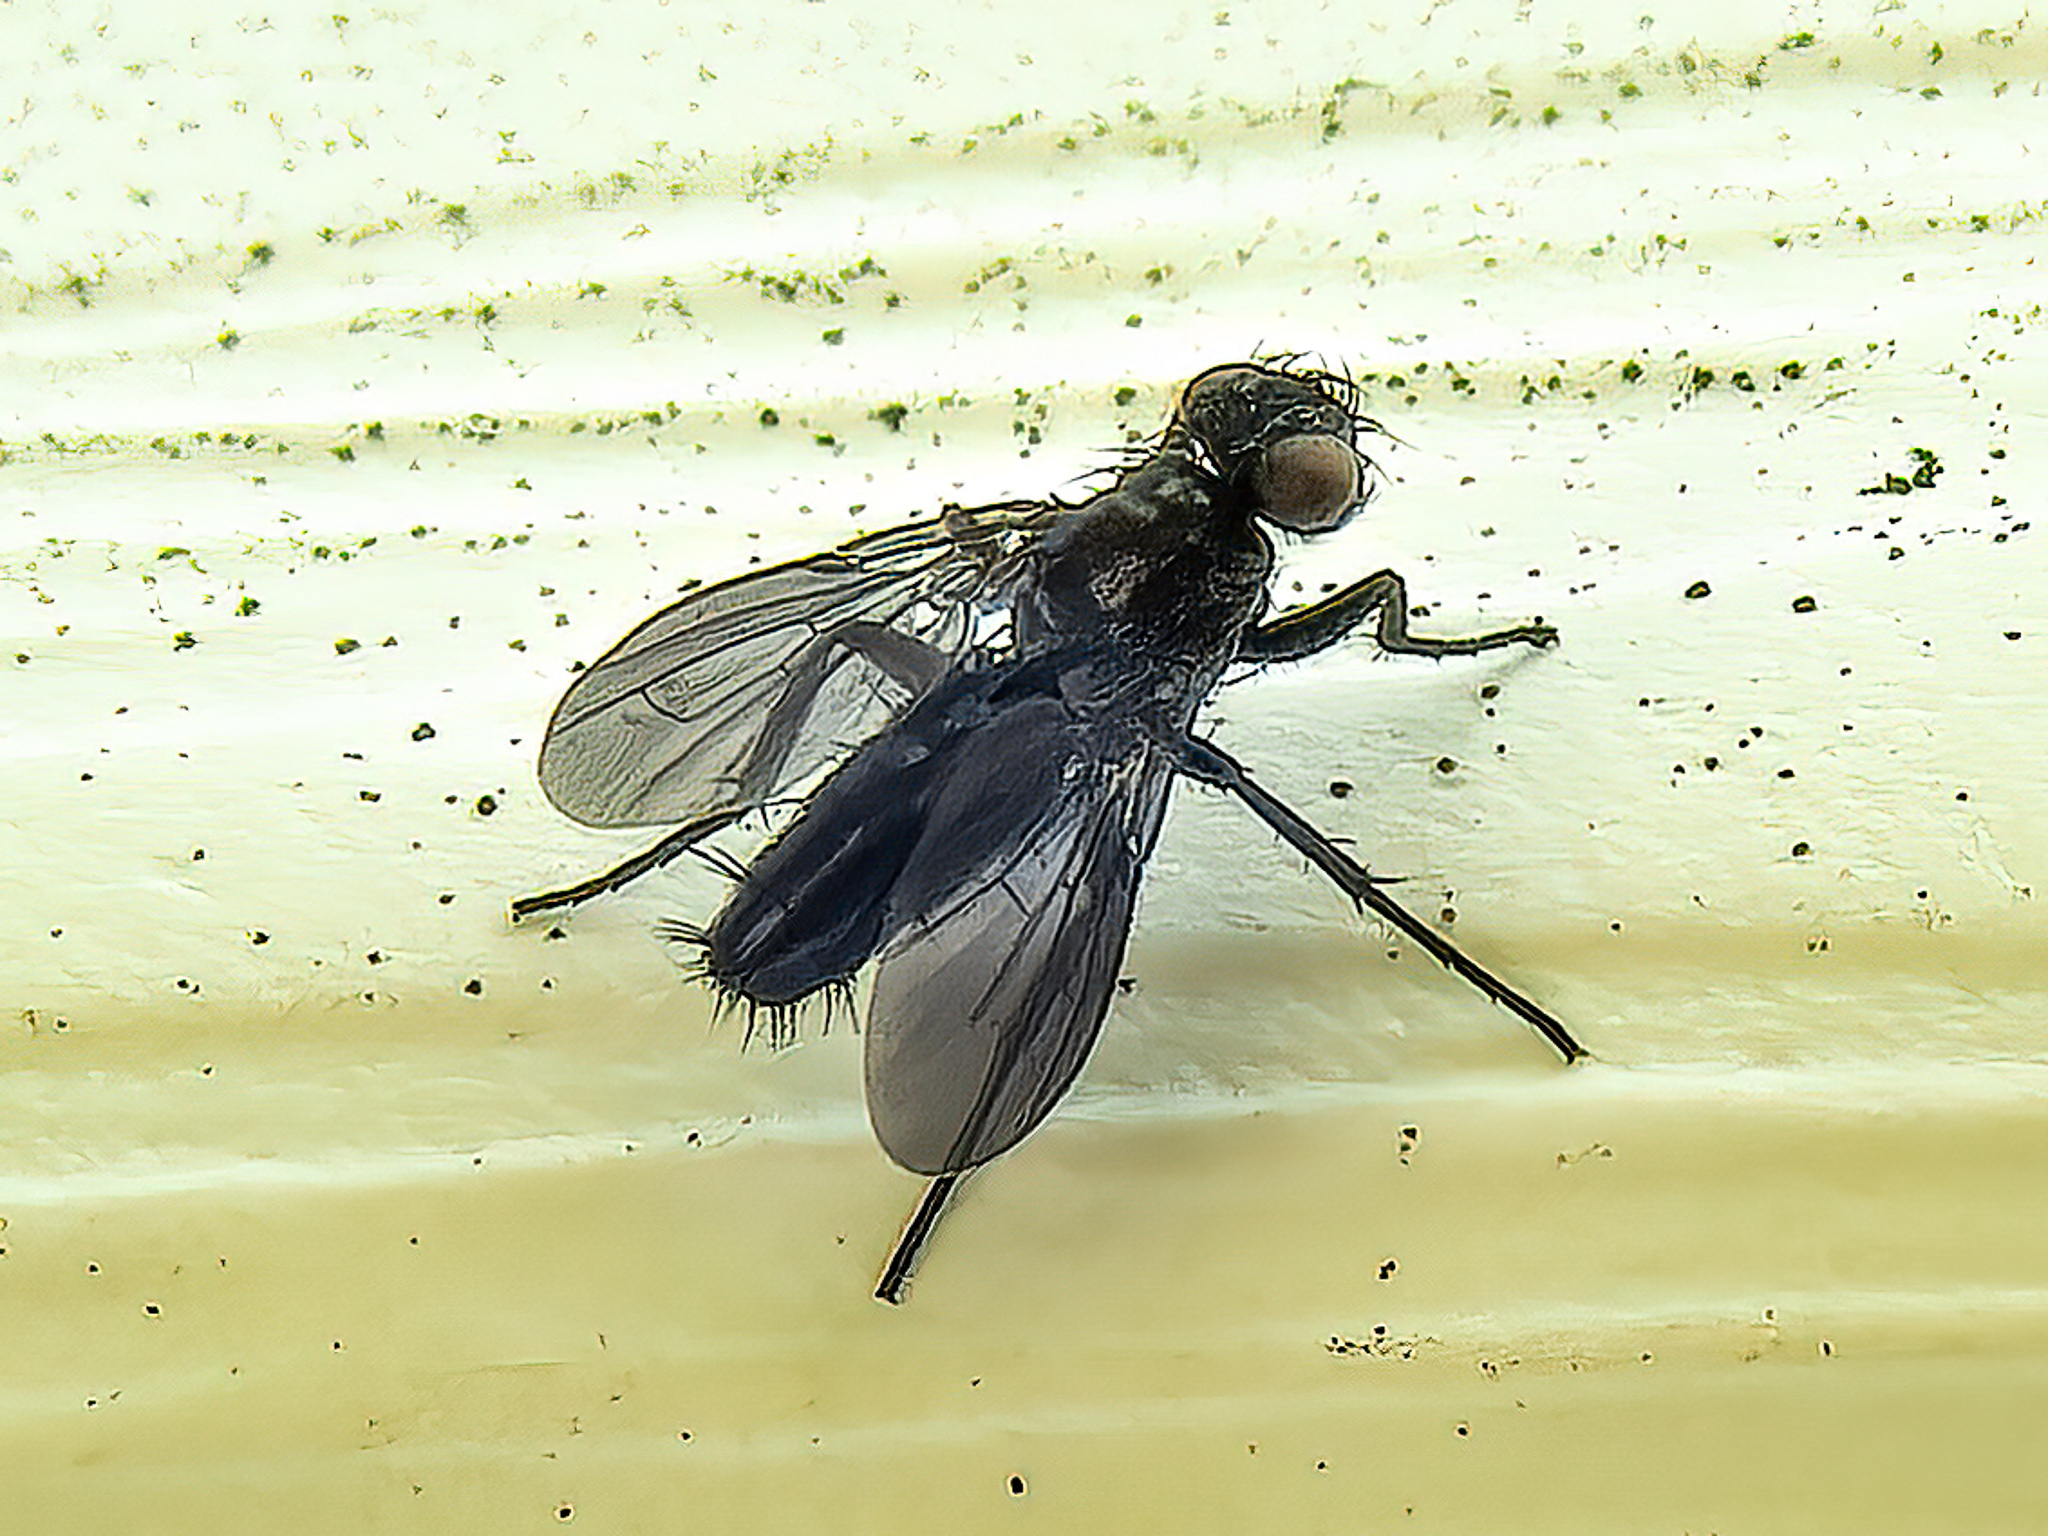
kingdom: Animalia
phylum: Arthropoda
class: Insecta
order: Diptera
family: Calliphoridae
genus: Melanophora
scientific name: Melanophora roralis
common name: Smoky-winged woodlouse-fly
